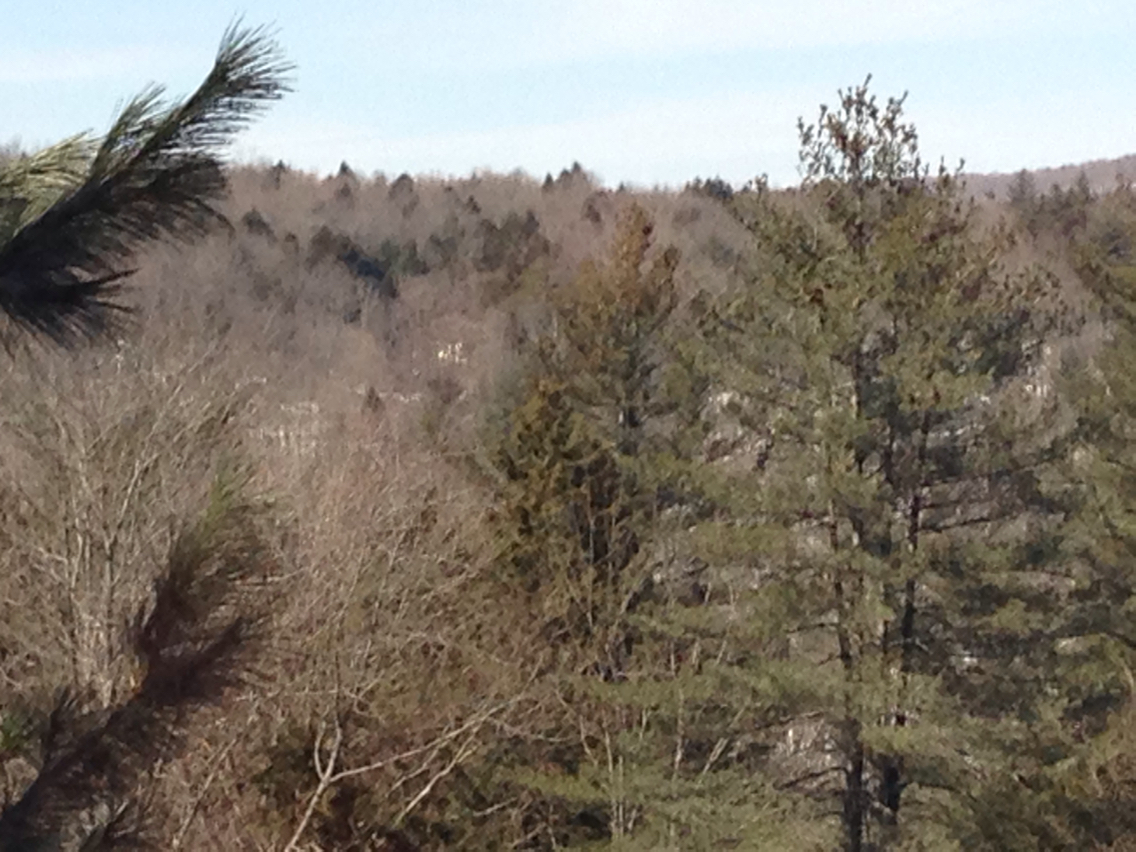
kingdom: Plantae
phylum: Tracheophyta
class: Pinopsida
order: Pinales
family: Pinaceae
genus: Tsuga
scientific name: Tsuga canadensis
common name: Eastern hemlock
